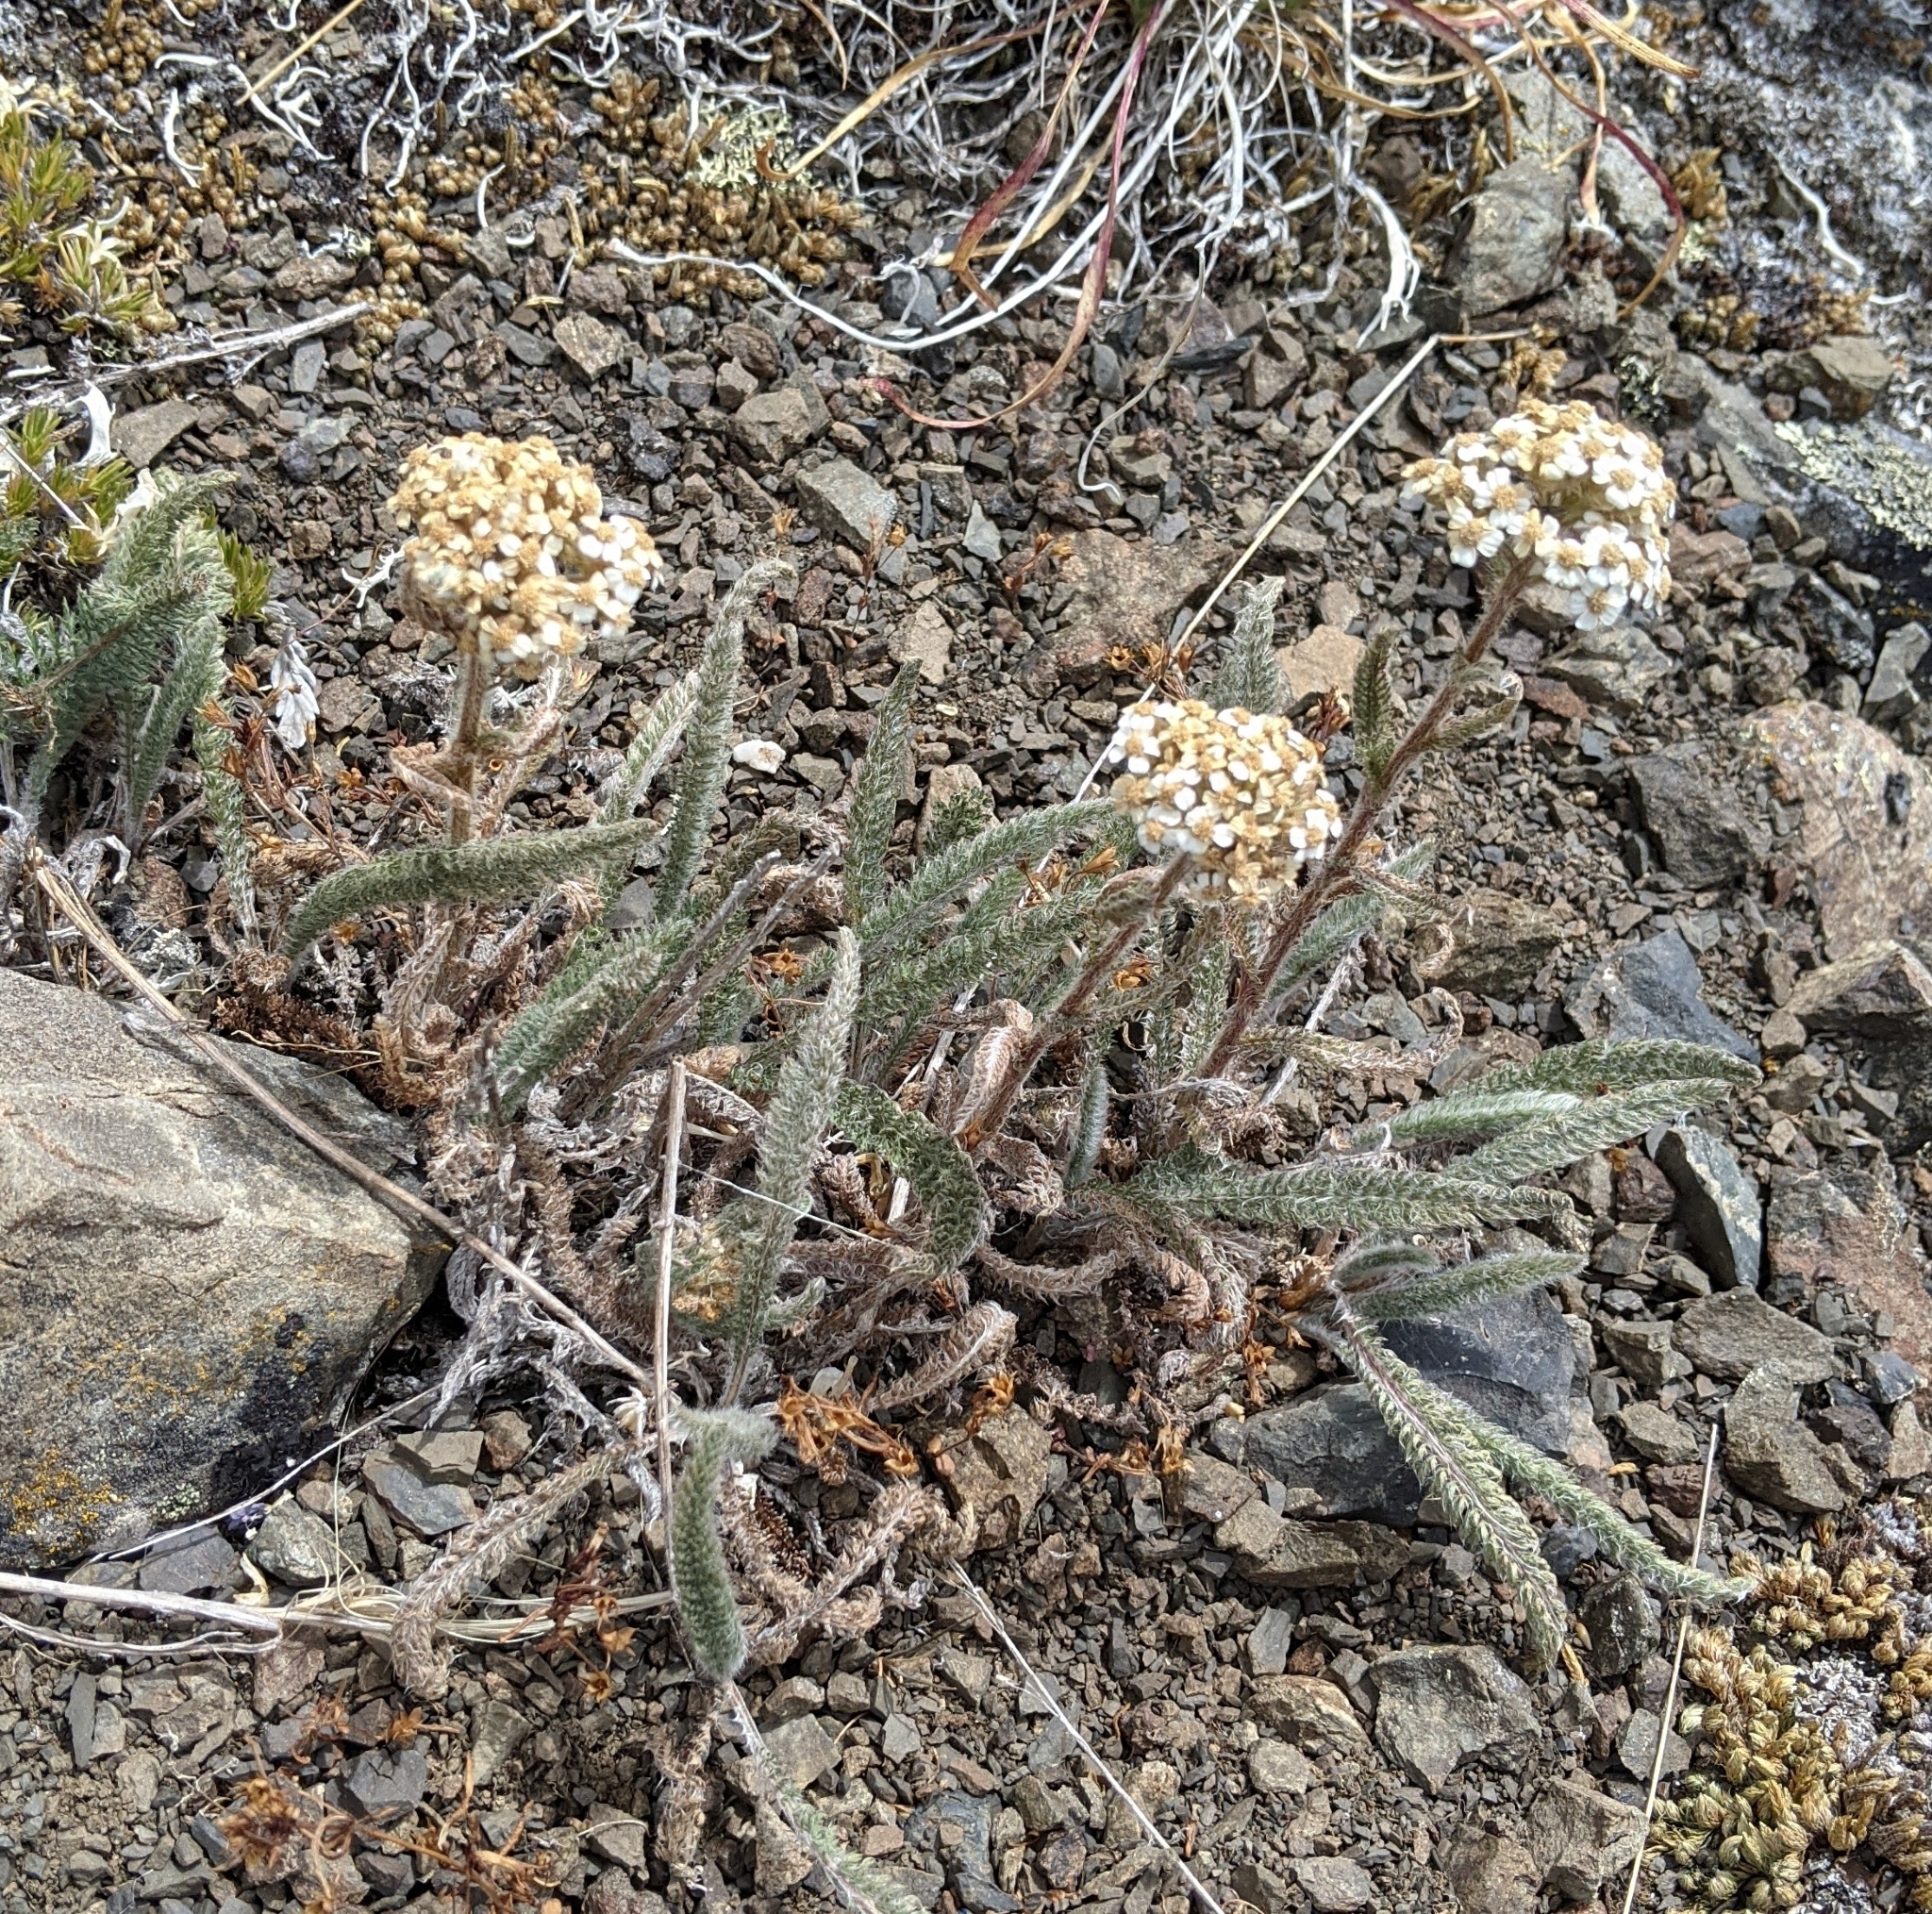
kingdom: Plantae
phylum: Tracheophyta
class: Magnoliopsida
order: Asterales
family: Asteraceae
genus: Achillea
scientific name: Achillea millefolium
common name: Yarrow
